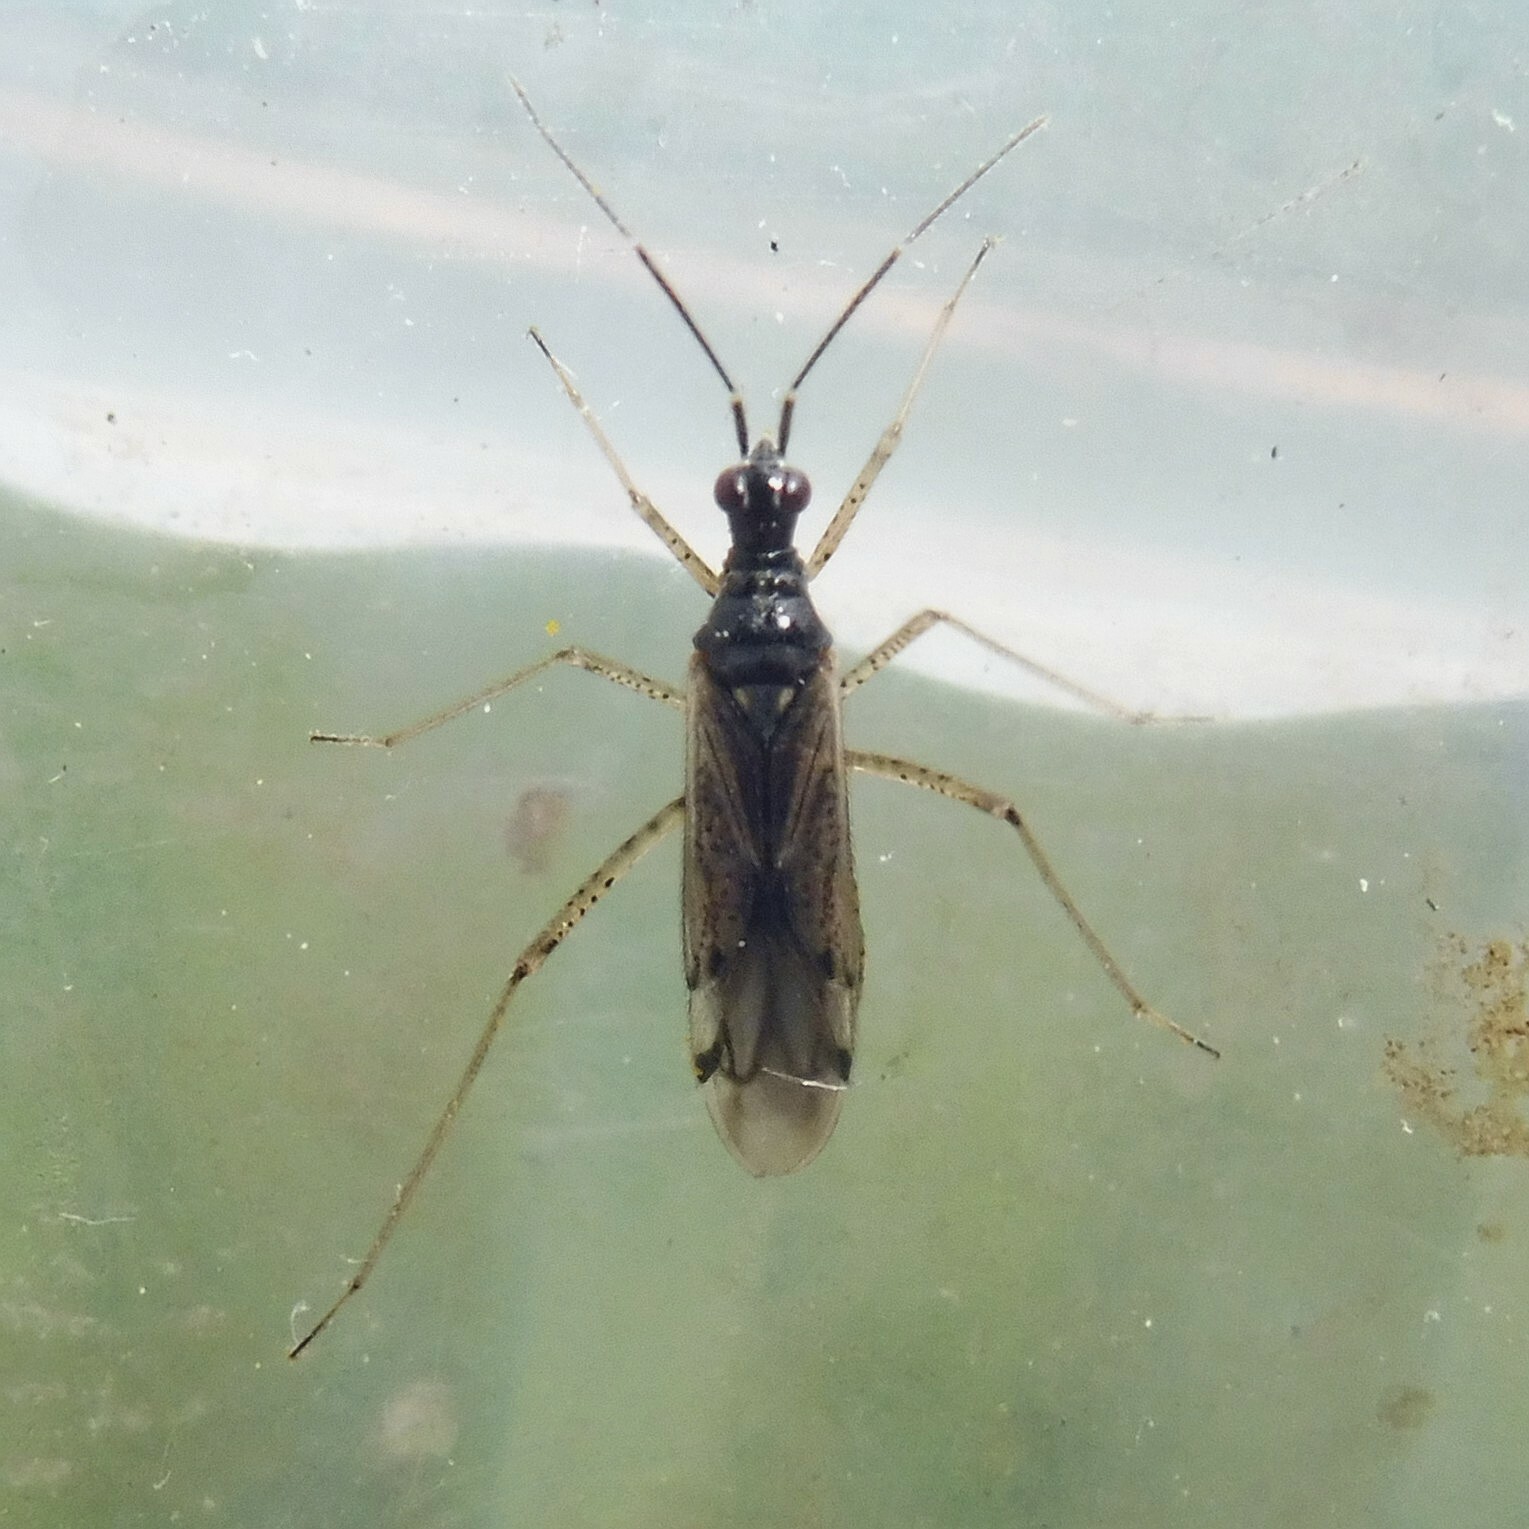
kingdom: Animalia
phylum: Arthropoda
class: Insecta
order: Hemiptera
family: Miridae
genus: Dicyphus
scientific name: Dicyphus errans
